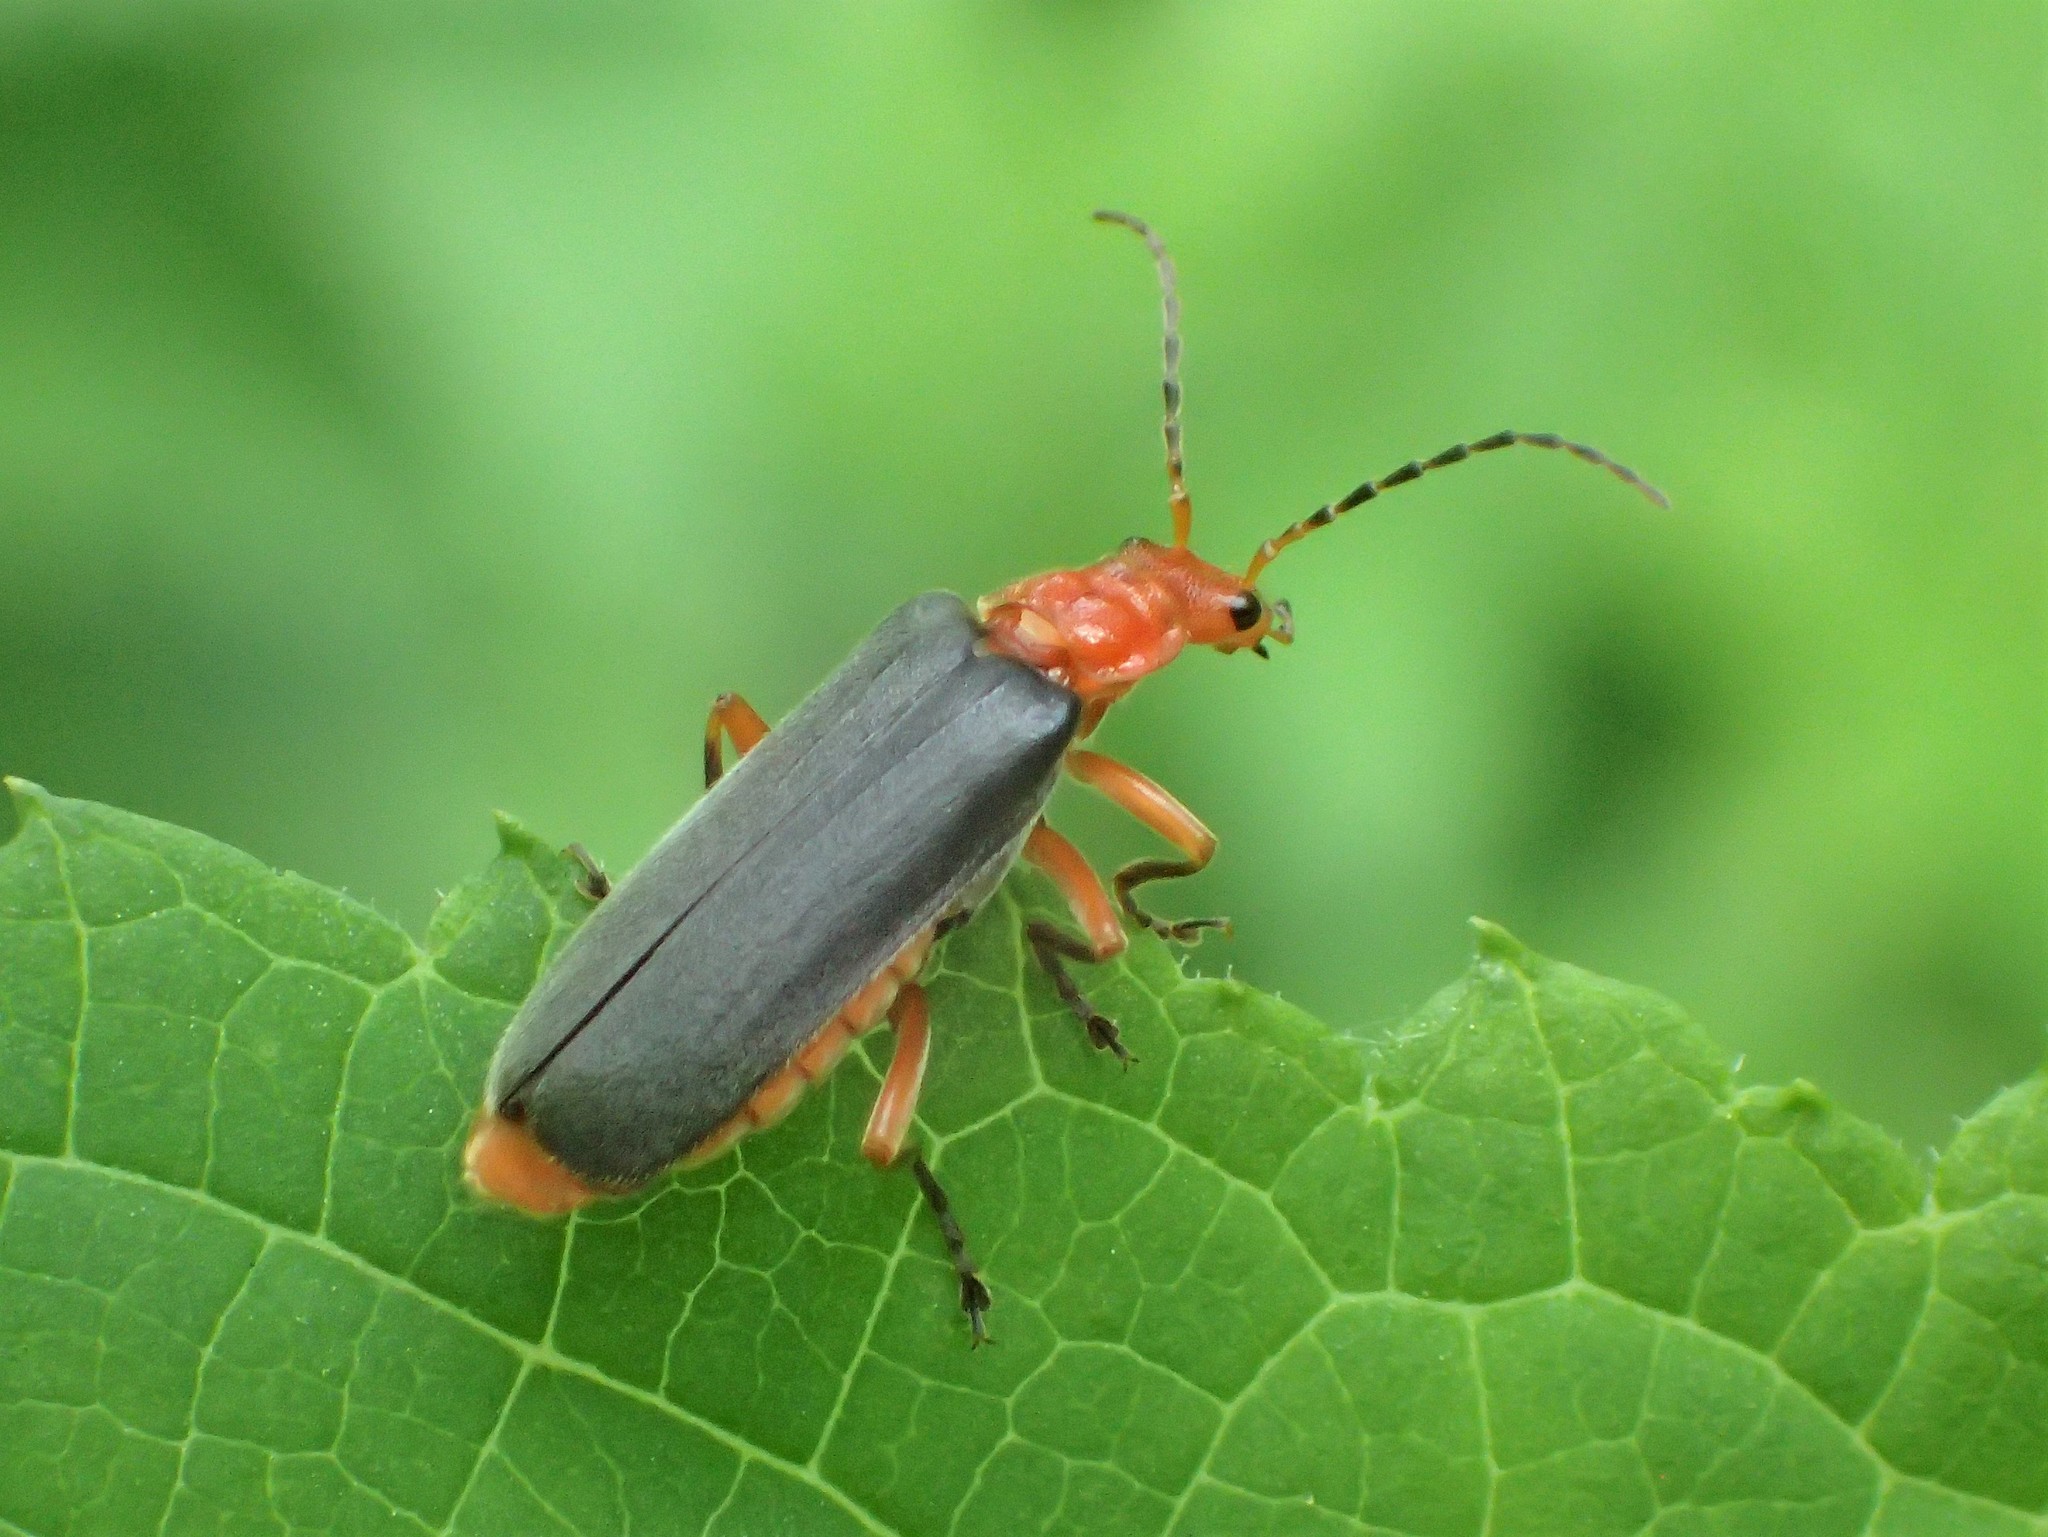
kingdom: Animalia
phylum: Arthropoda
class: Insecta
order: Coleoptera
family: Cantharidae
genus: Podabrus
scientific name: Podabrus tomentosus
